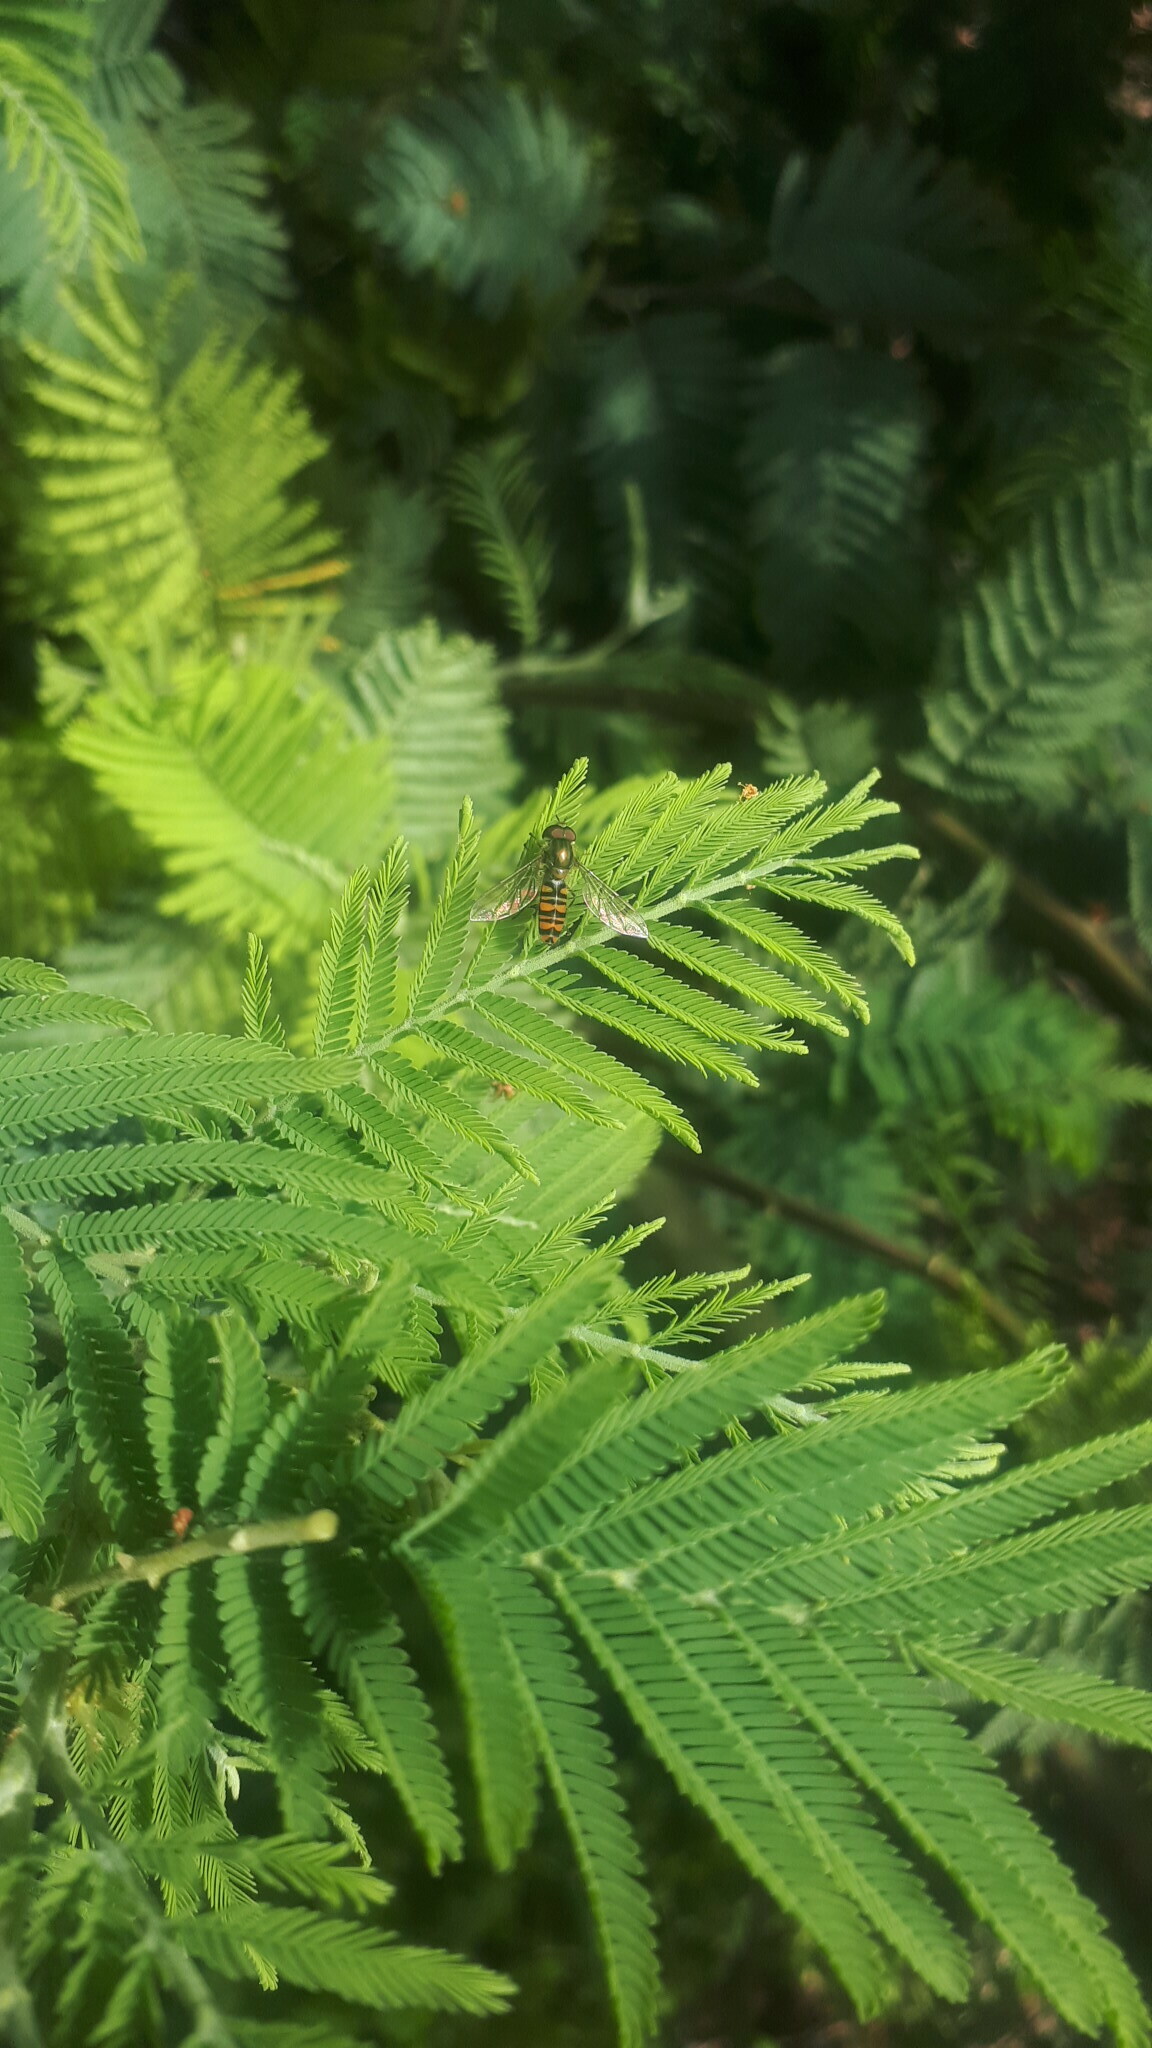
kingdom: Animalia
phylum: Arthropoda
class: Insecta
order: Diptera
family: Syrphidae
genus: Episyrphus
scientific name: Episyrphus balteatus
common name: Marmalade hoverfly
